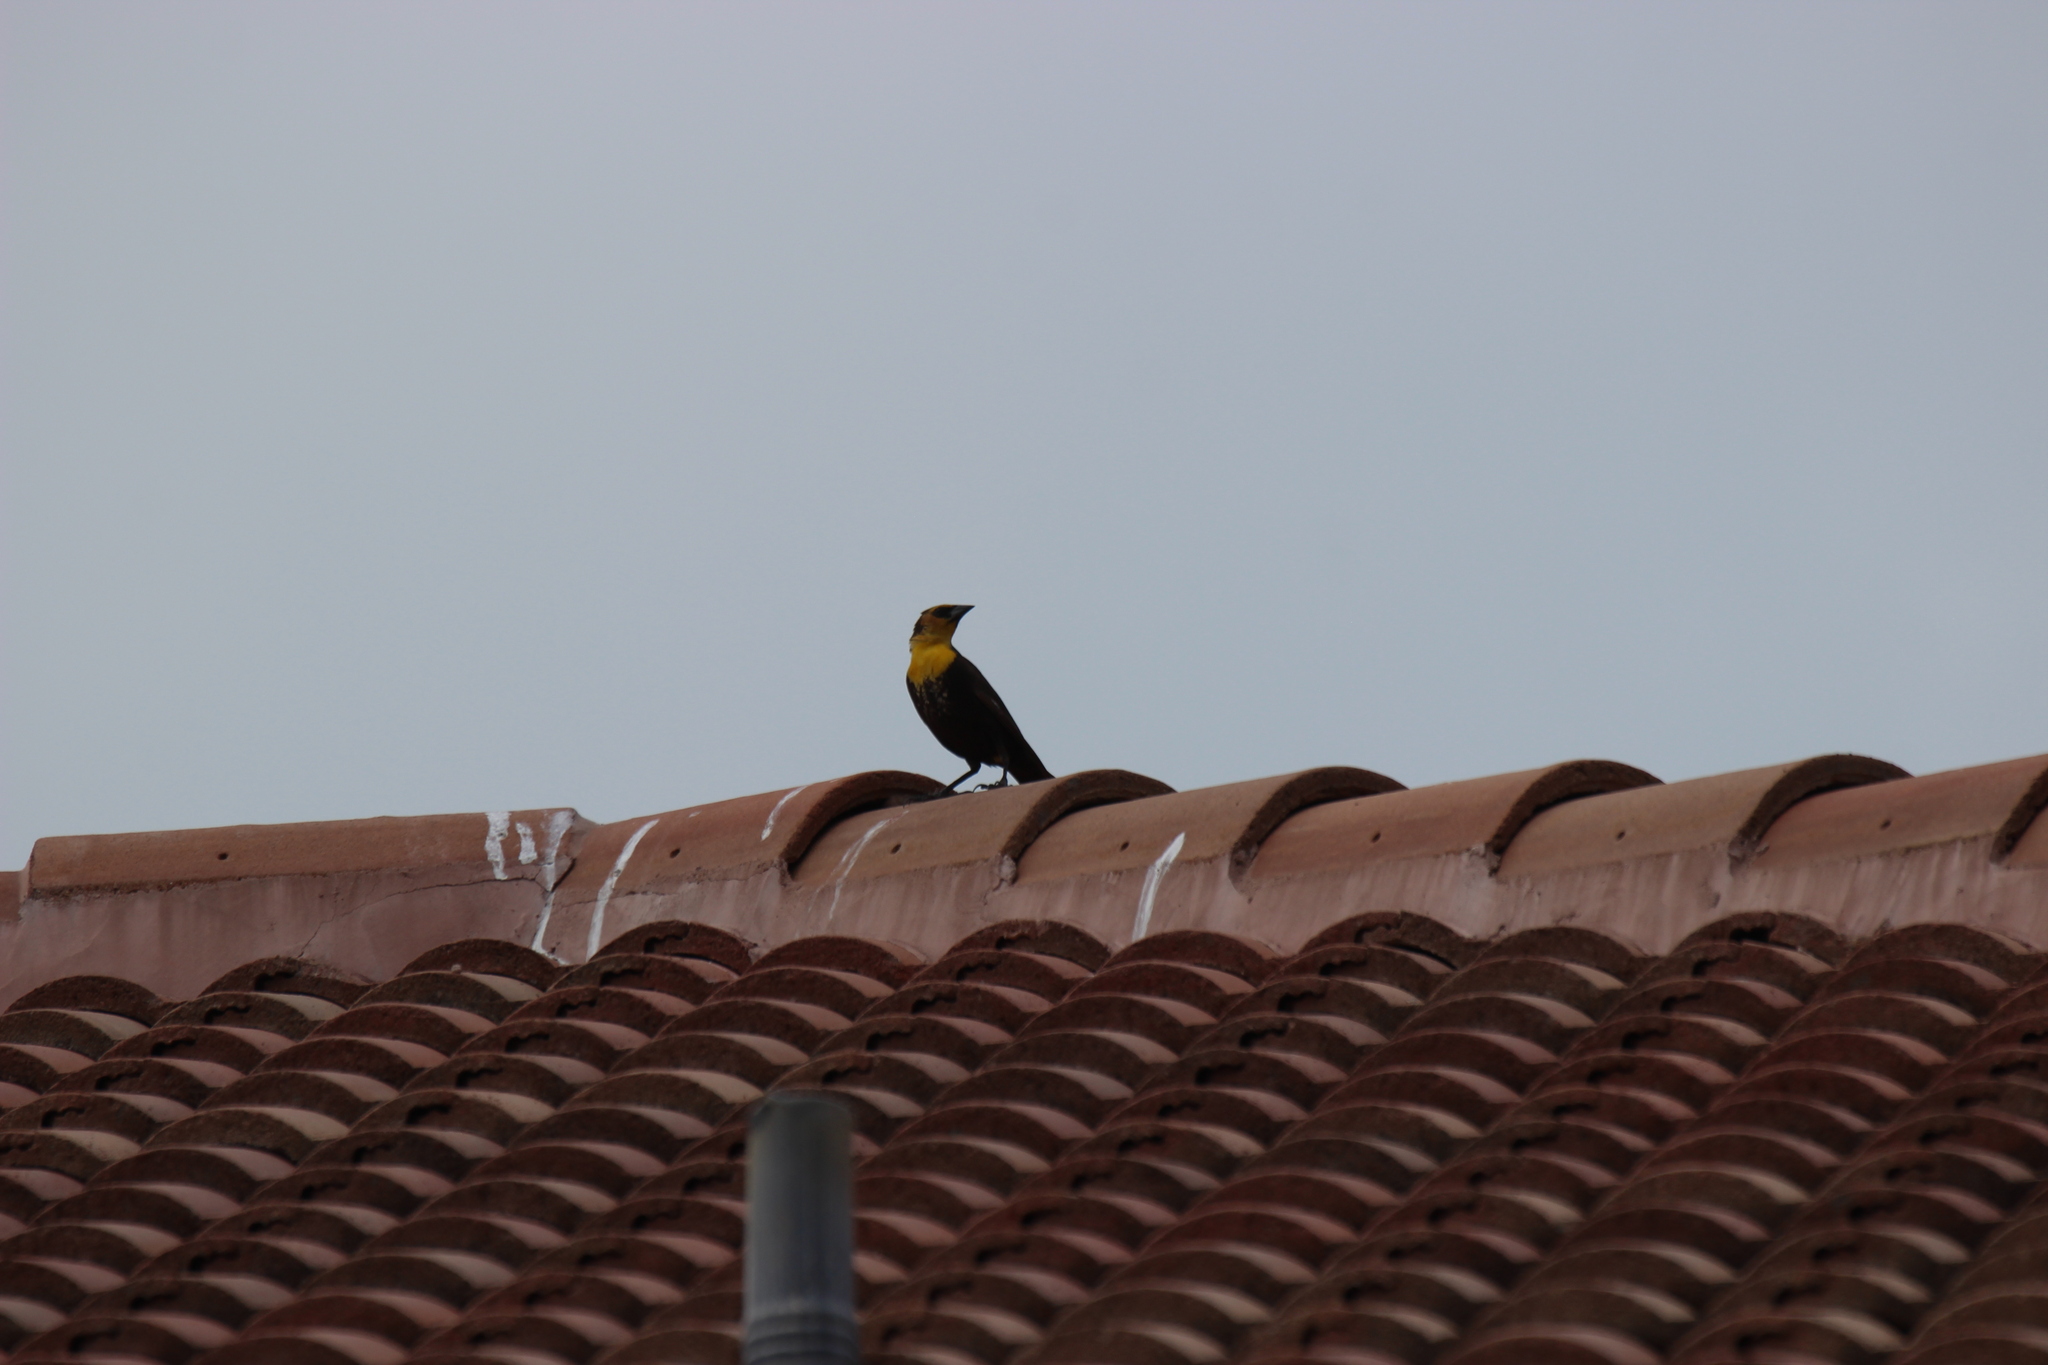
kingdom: Animalia
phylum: Chordata
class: Aves
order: Passeriformes
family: Icteridae
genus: Xanthocephalus
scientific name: Xanthocephalus xanthocephalus
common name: Yellow-headed blackbird
